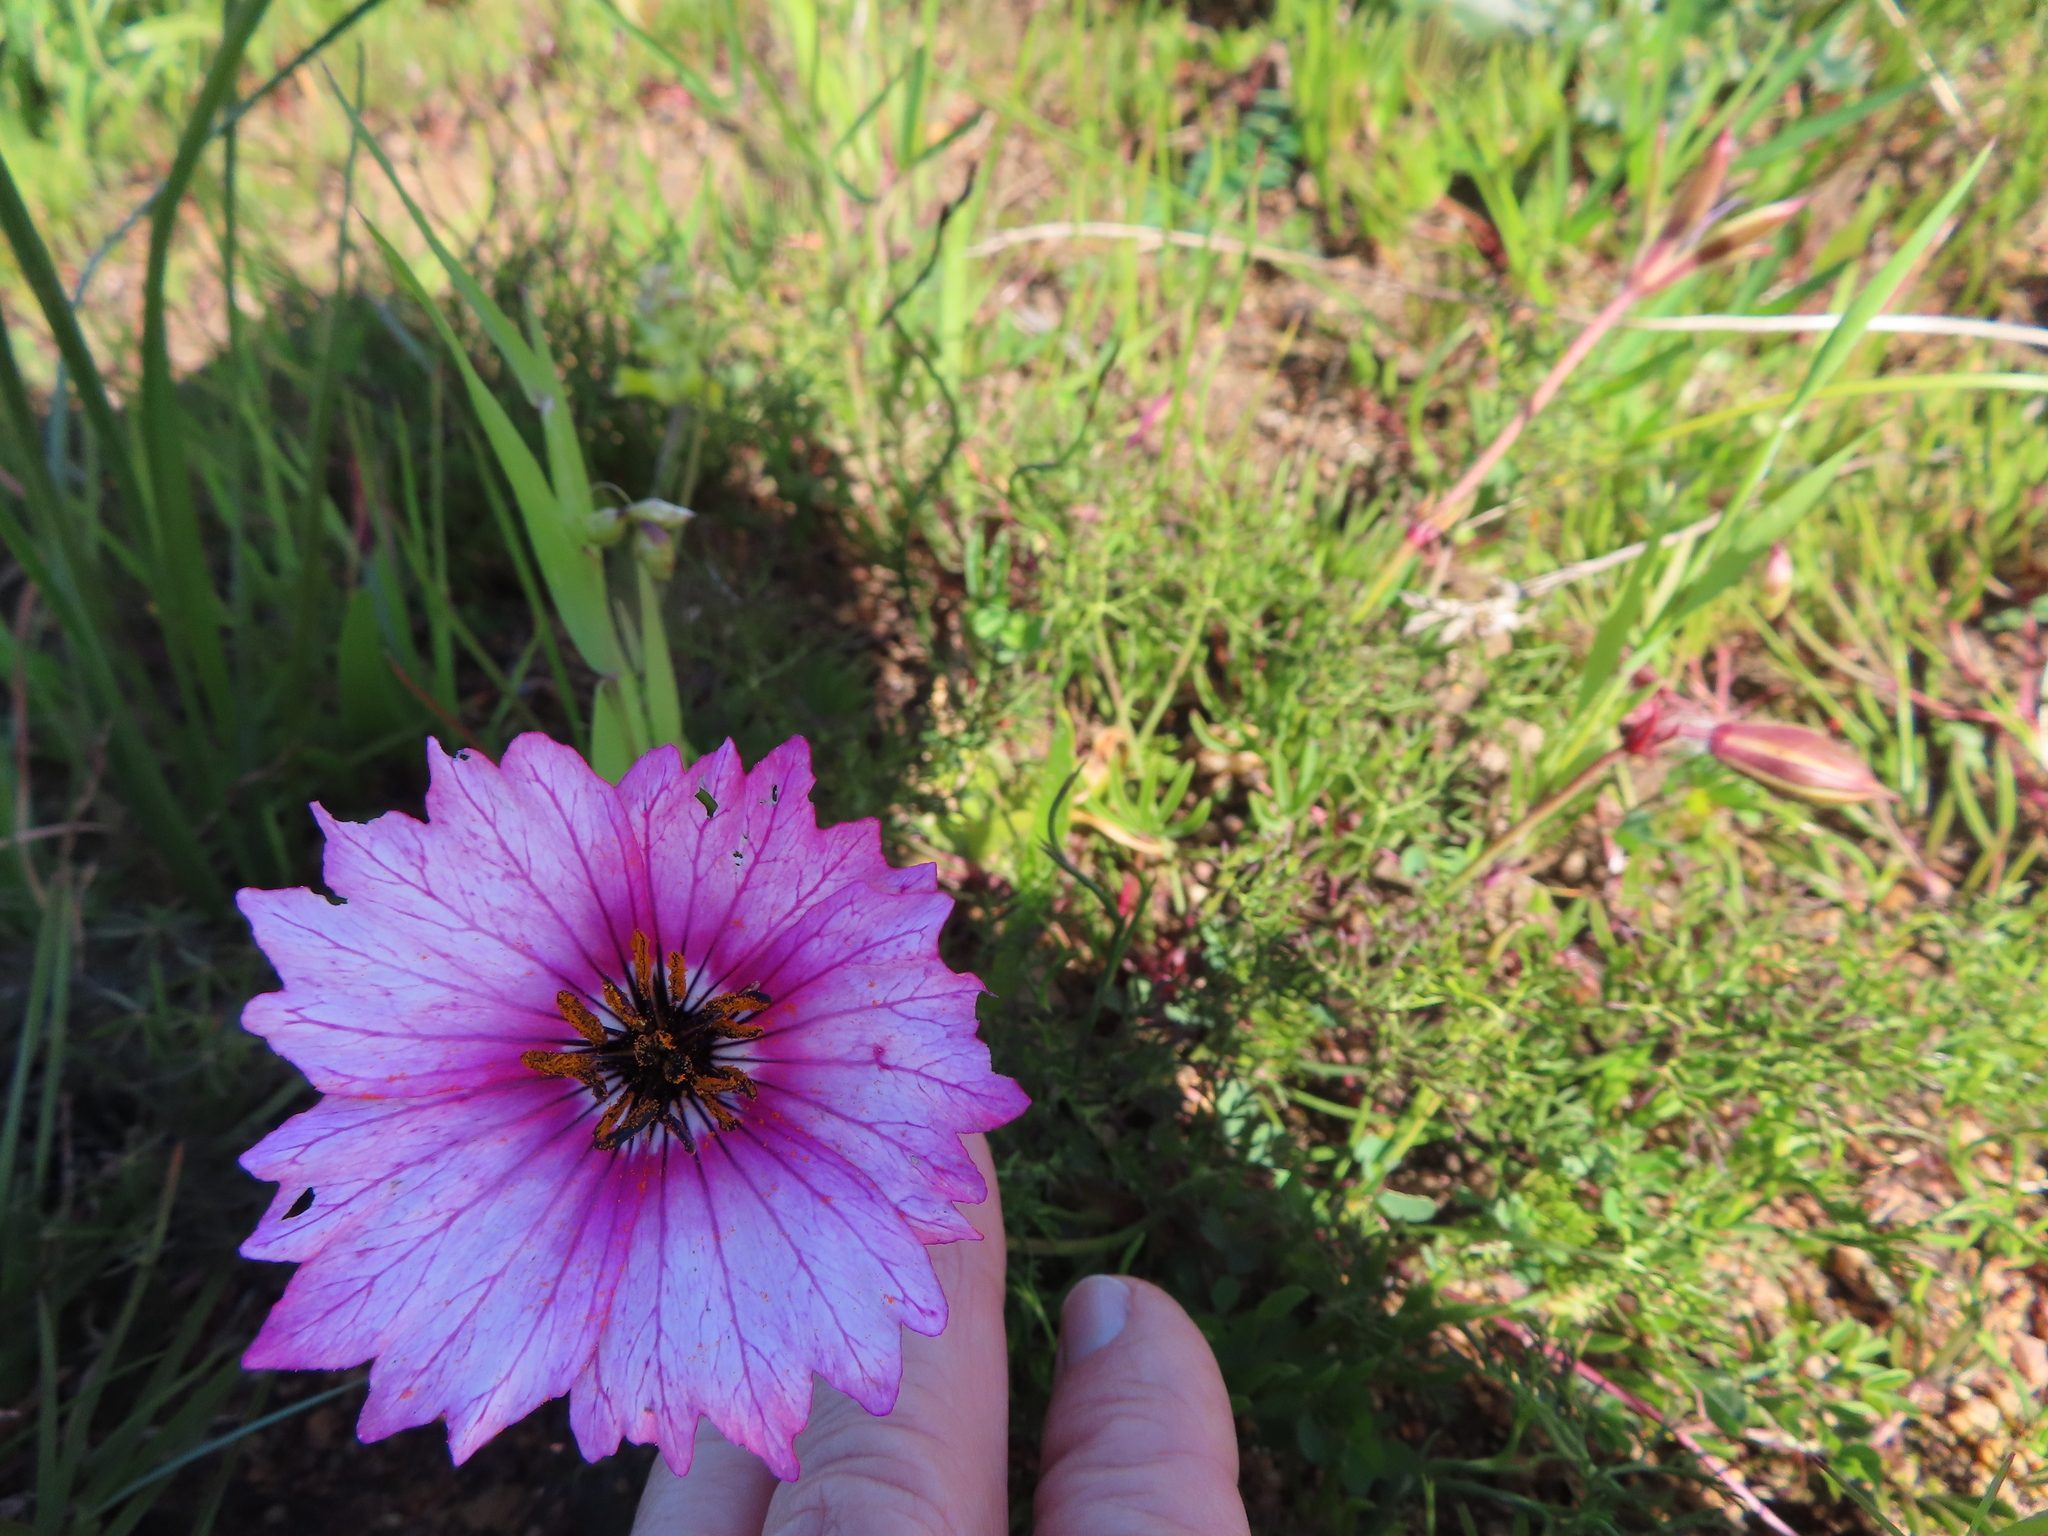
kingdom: Plantae
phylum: Tracheophyta
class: Magnoliopsida
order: Geraniales
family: Geraniaceae
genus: Monsonia
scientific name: Monsonia speciosa
